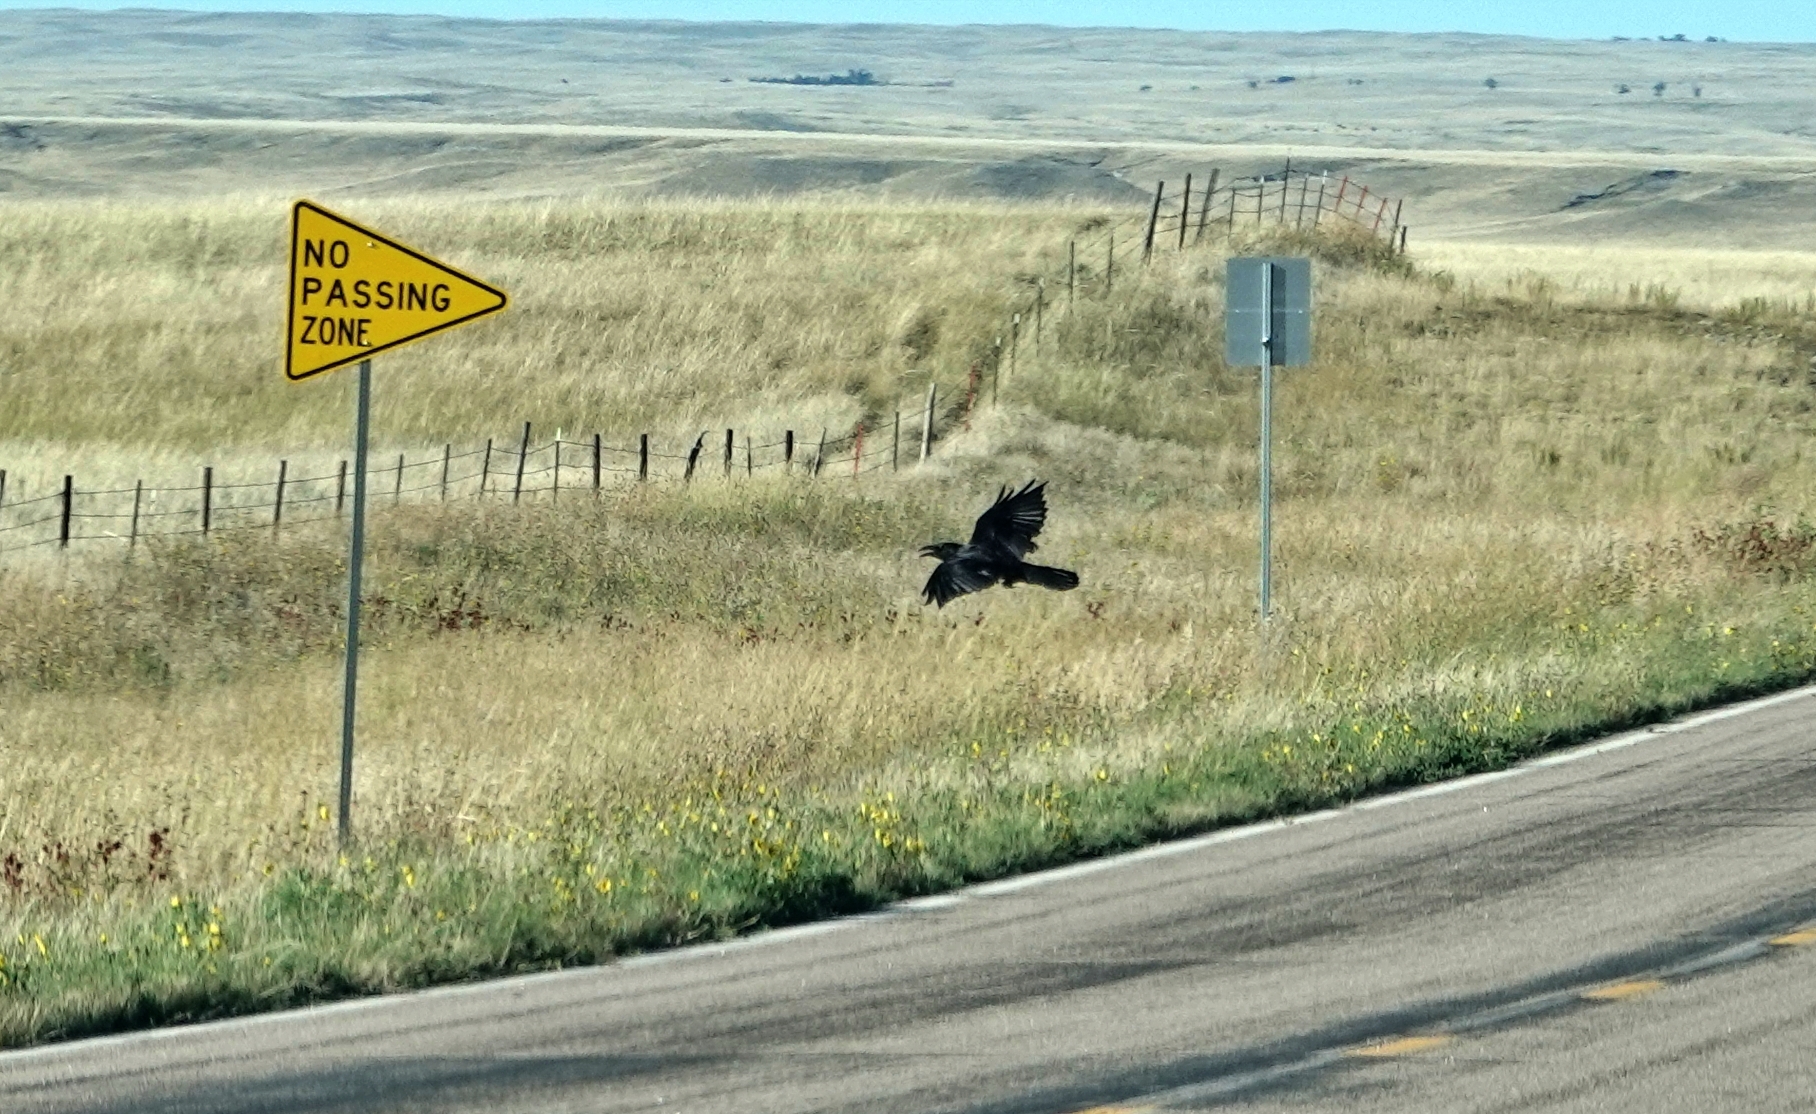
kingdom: Animalia
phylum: Chordata
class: Aves
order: Passeriformes
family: Corvidae
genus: Corvus
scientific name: Corvus corax
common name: Common raven
